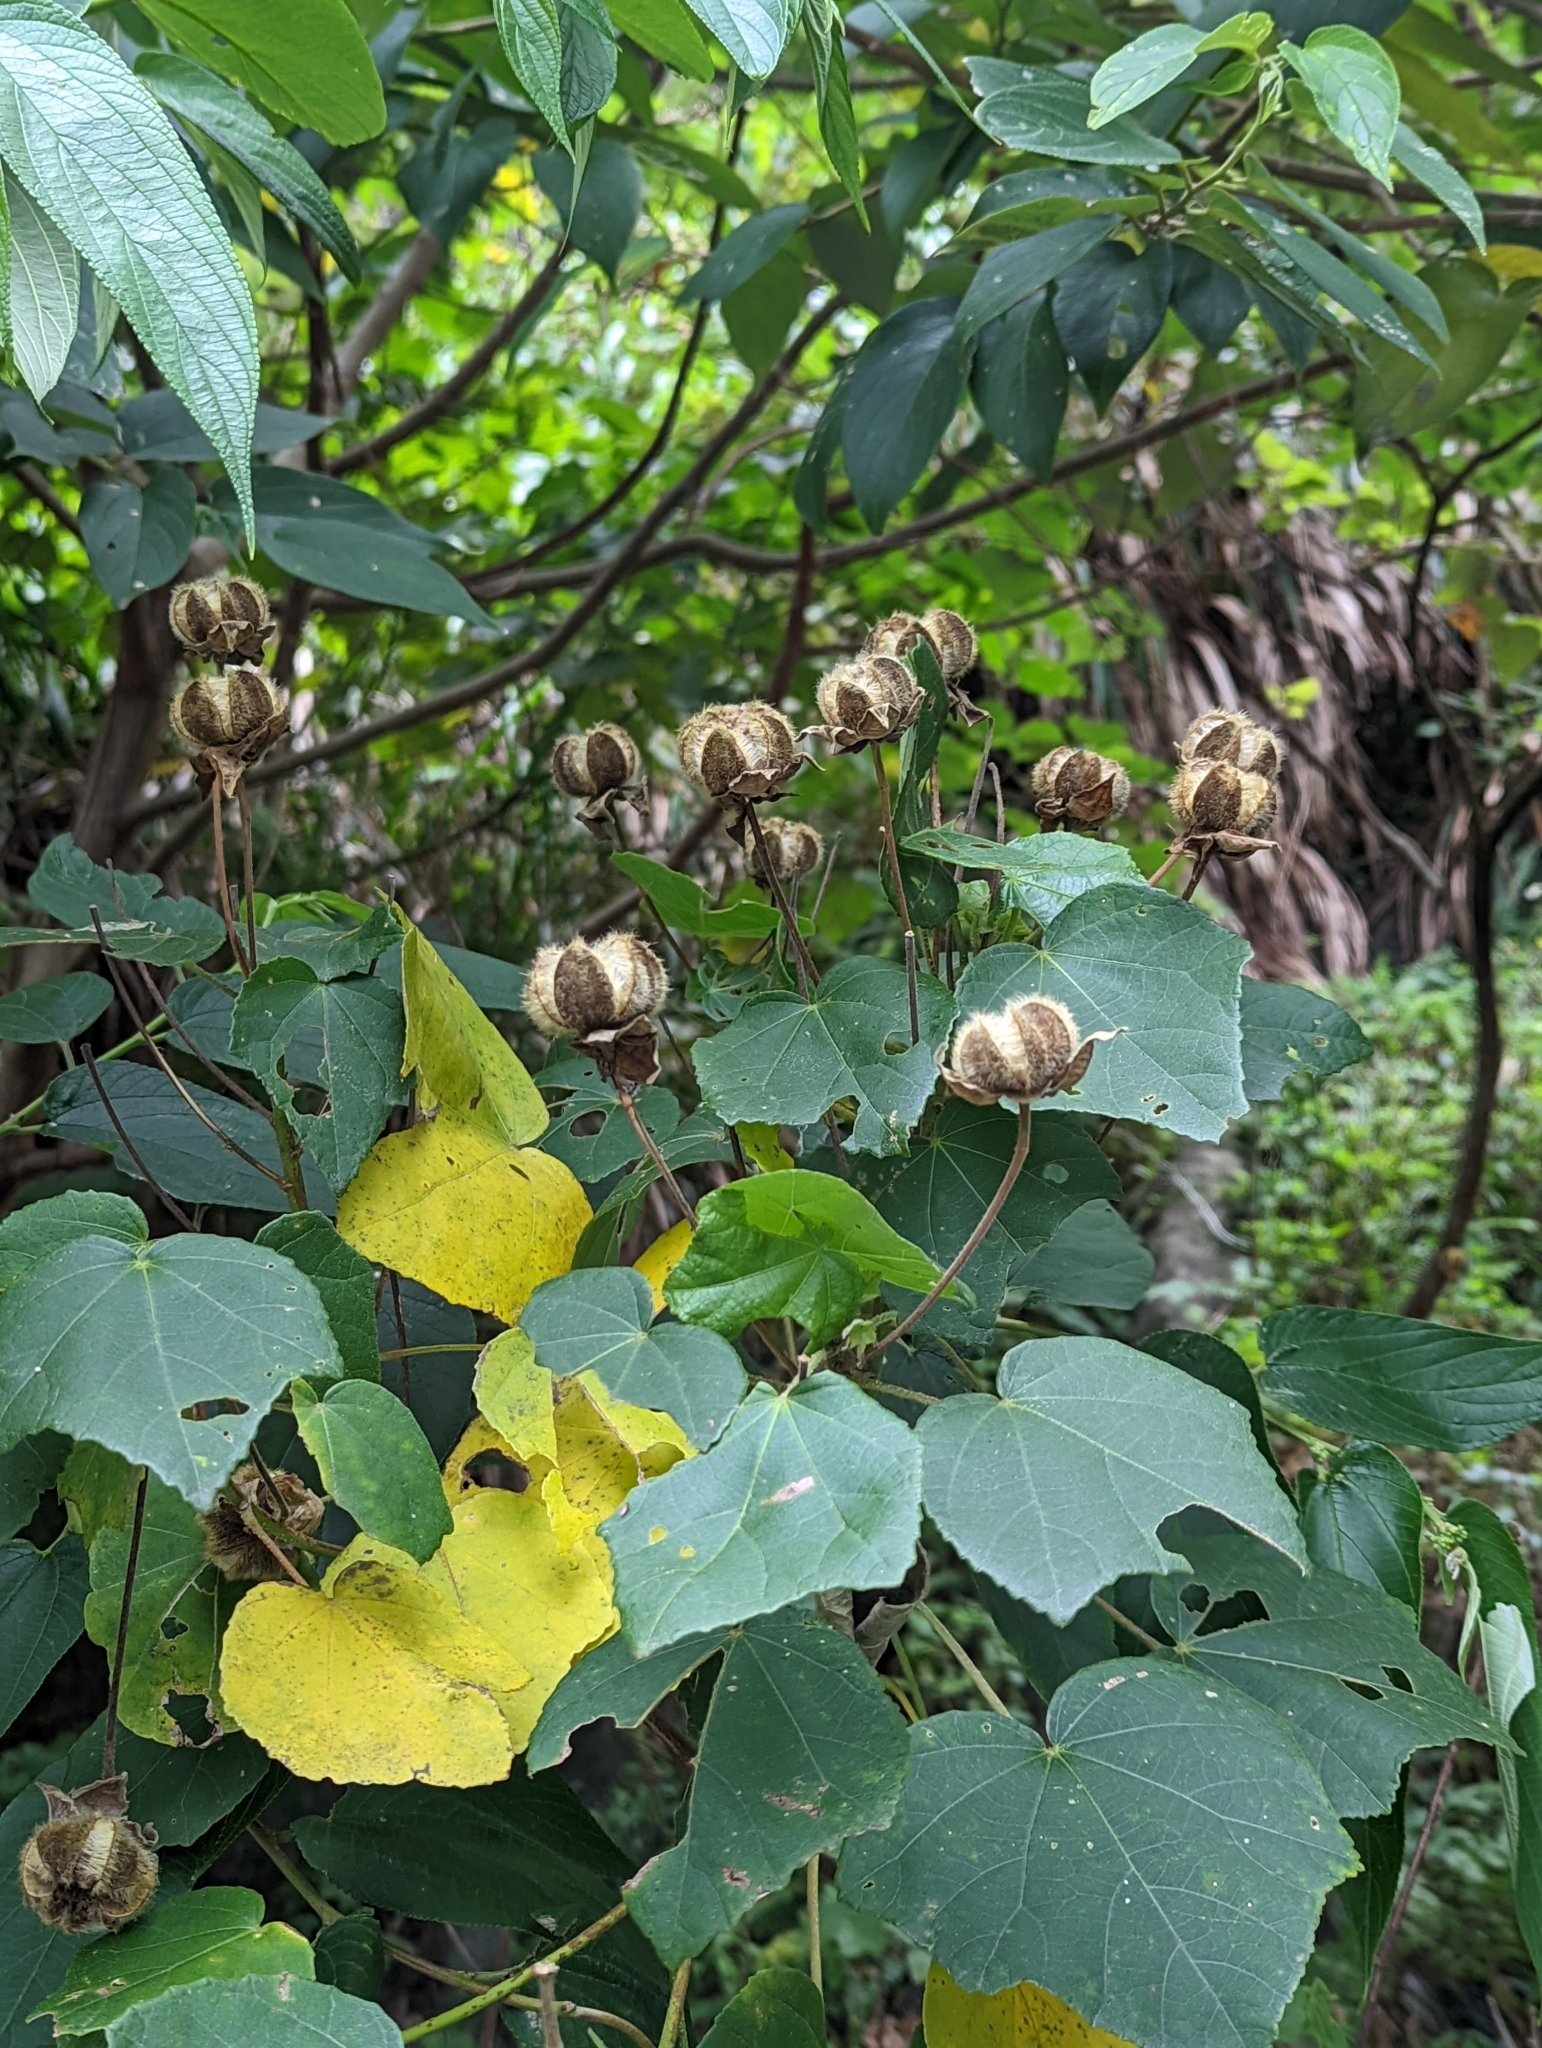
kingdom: Plantae
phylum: Tracheophyta
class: Magnoliopsida
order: Malvales
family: Malvaceae
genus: Hibiscus
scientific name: Hibiscus taiwanensis
